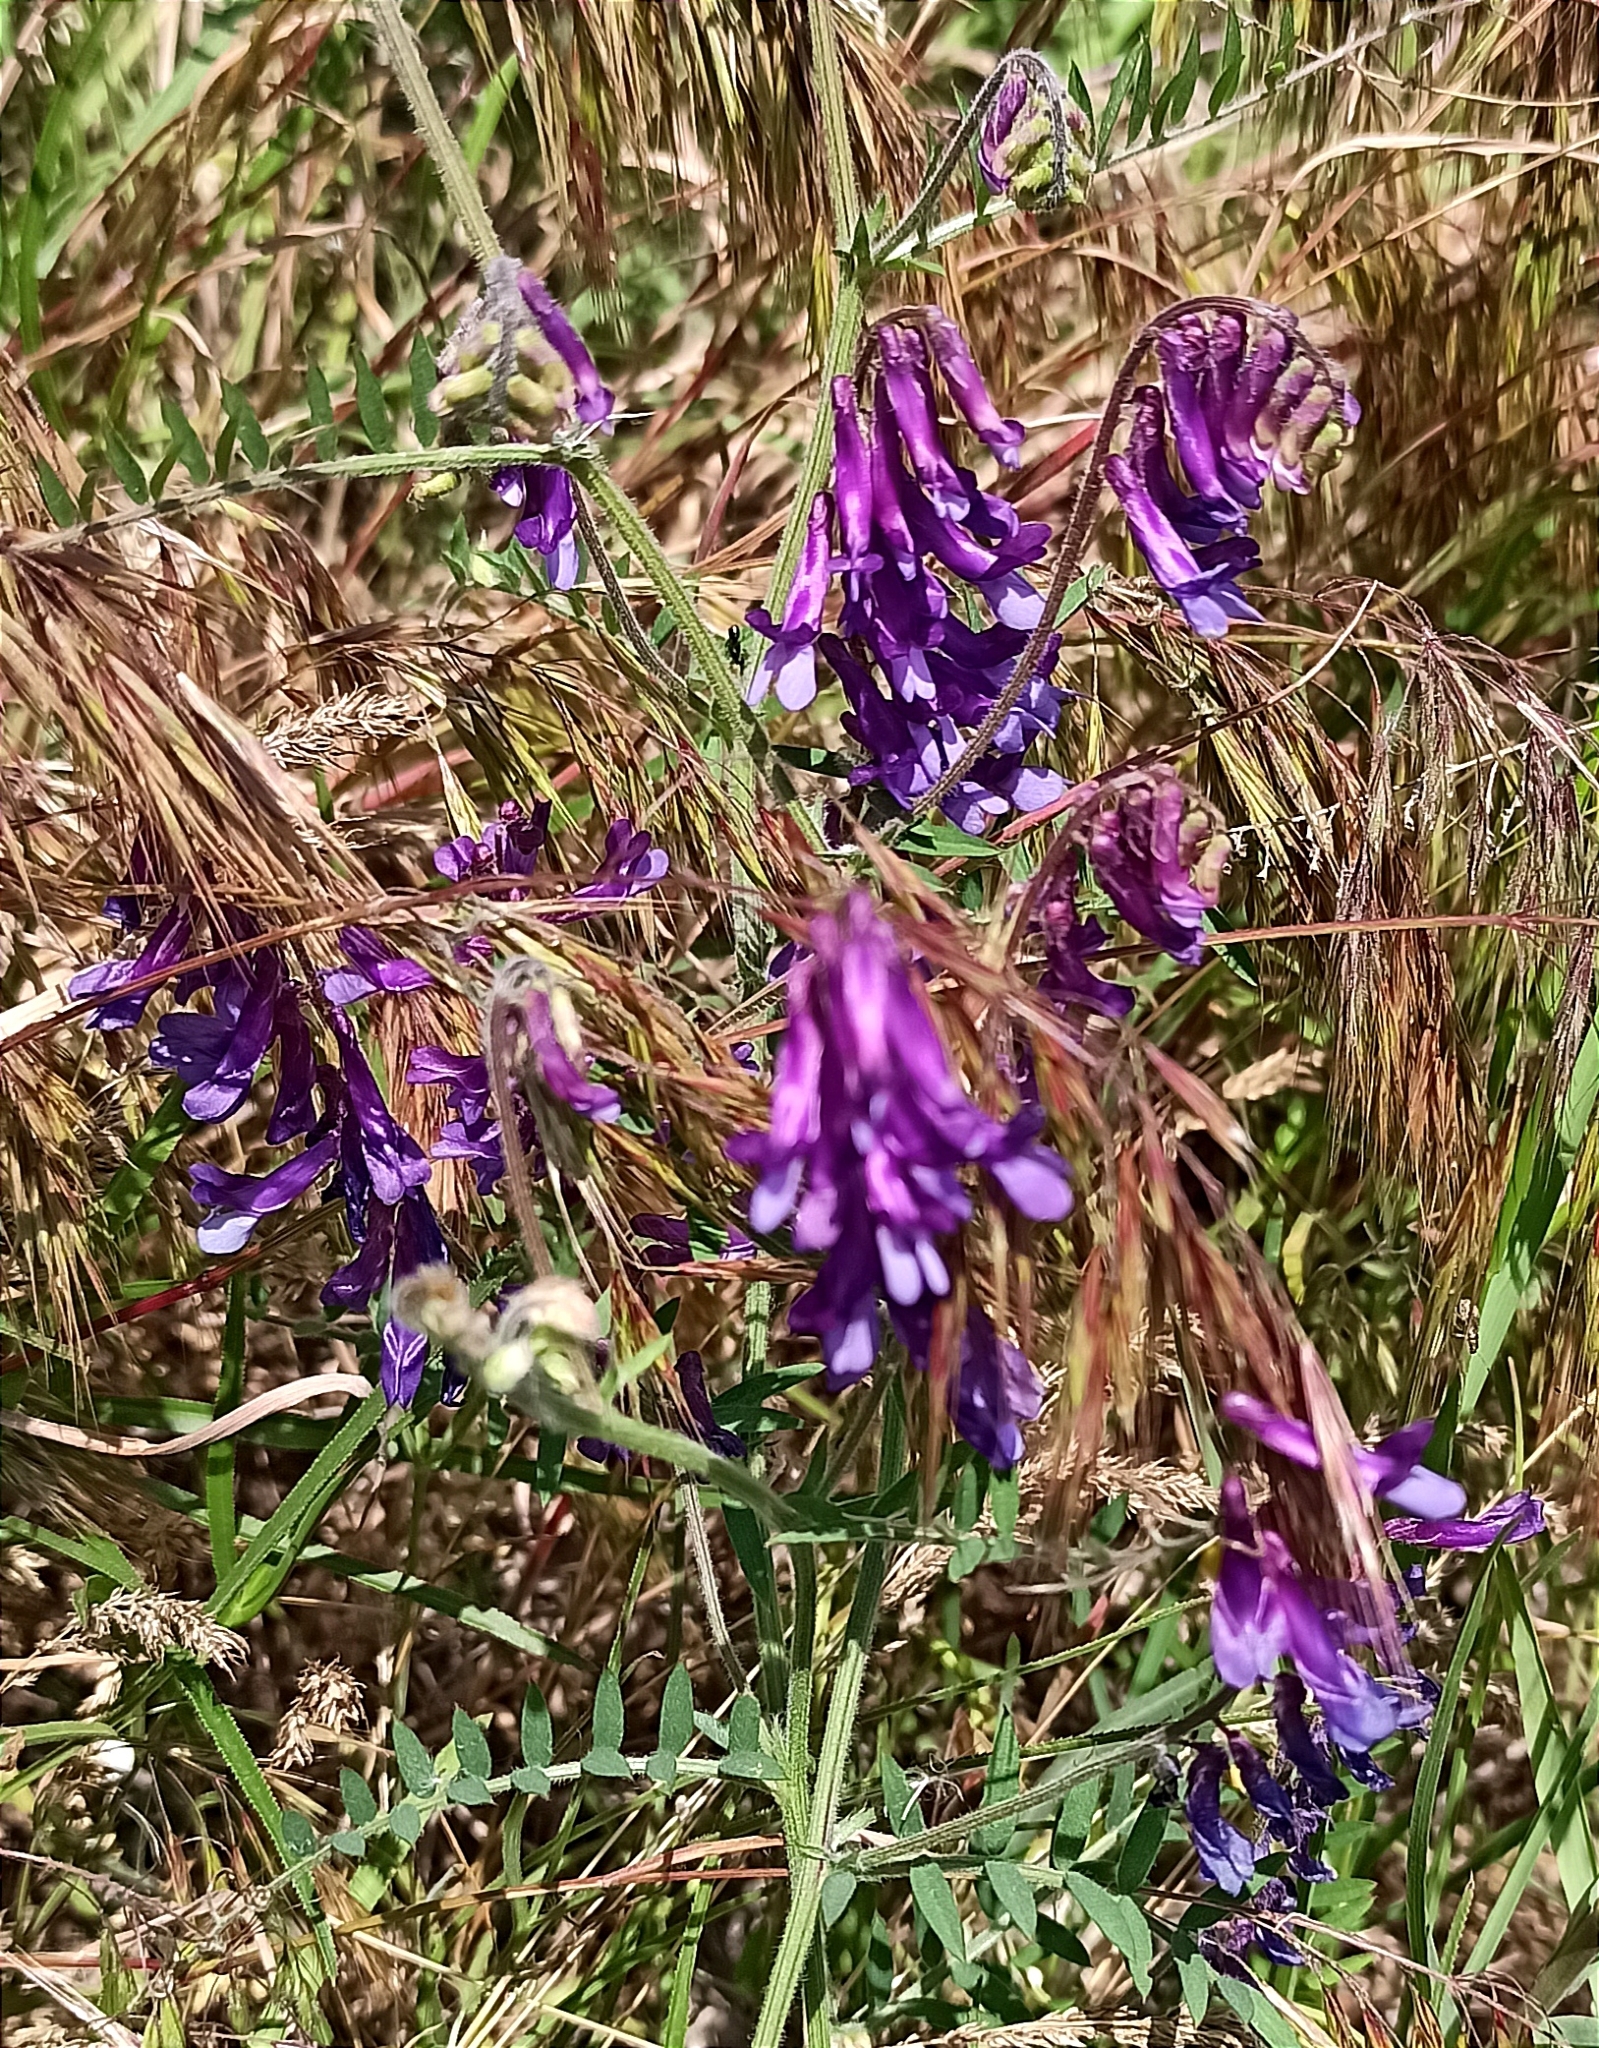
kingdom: Plantae
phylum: Tracheophyta
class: Magnoliopsida
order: Fabales
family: Fabaceae
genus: Vicia
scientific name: Vicia villosa
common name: Fodder vetch
